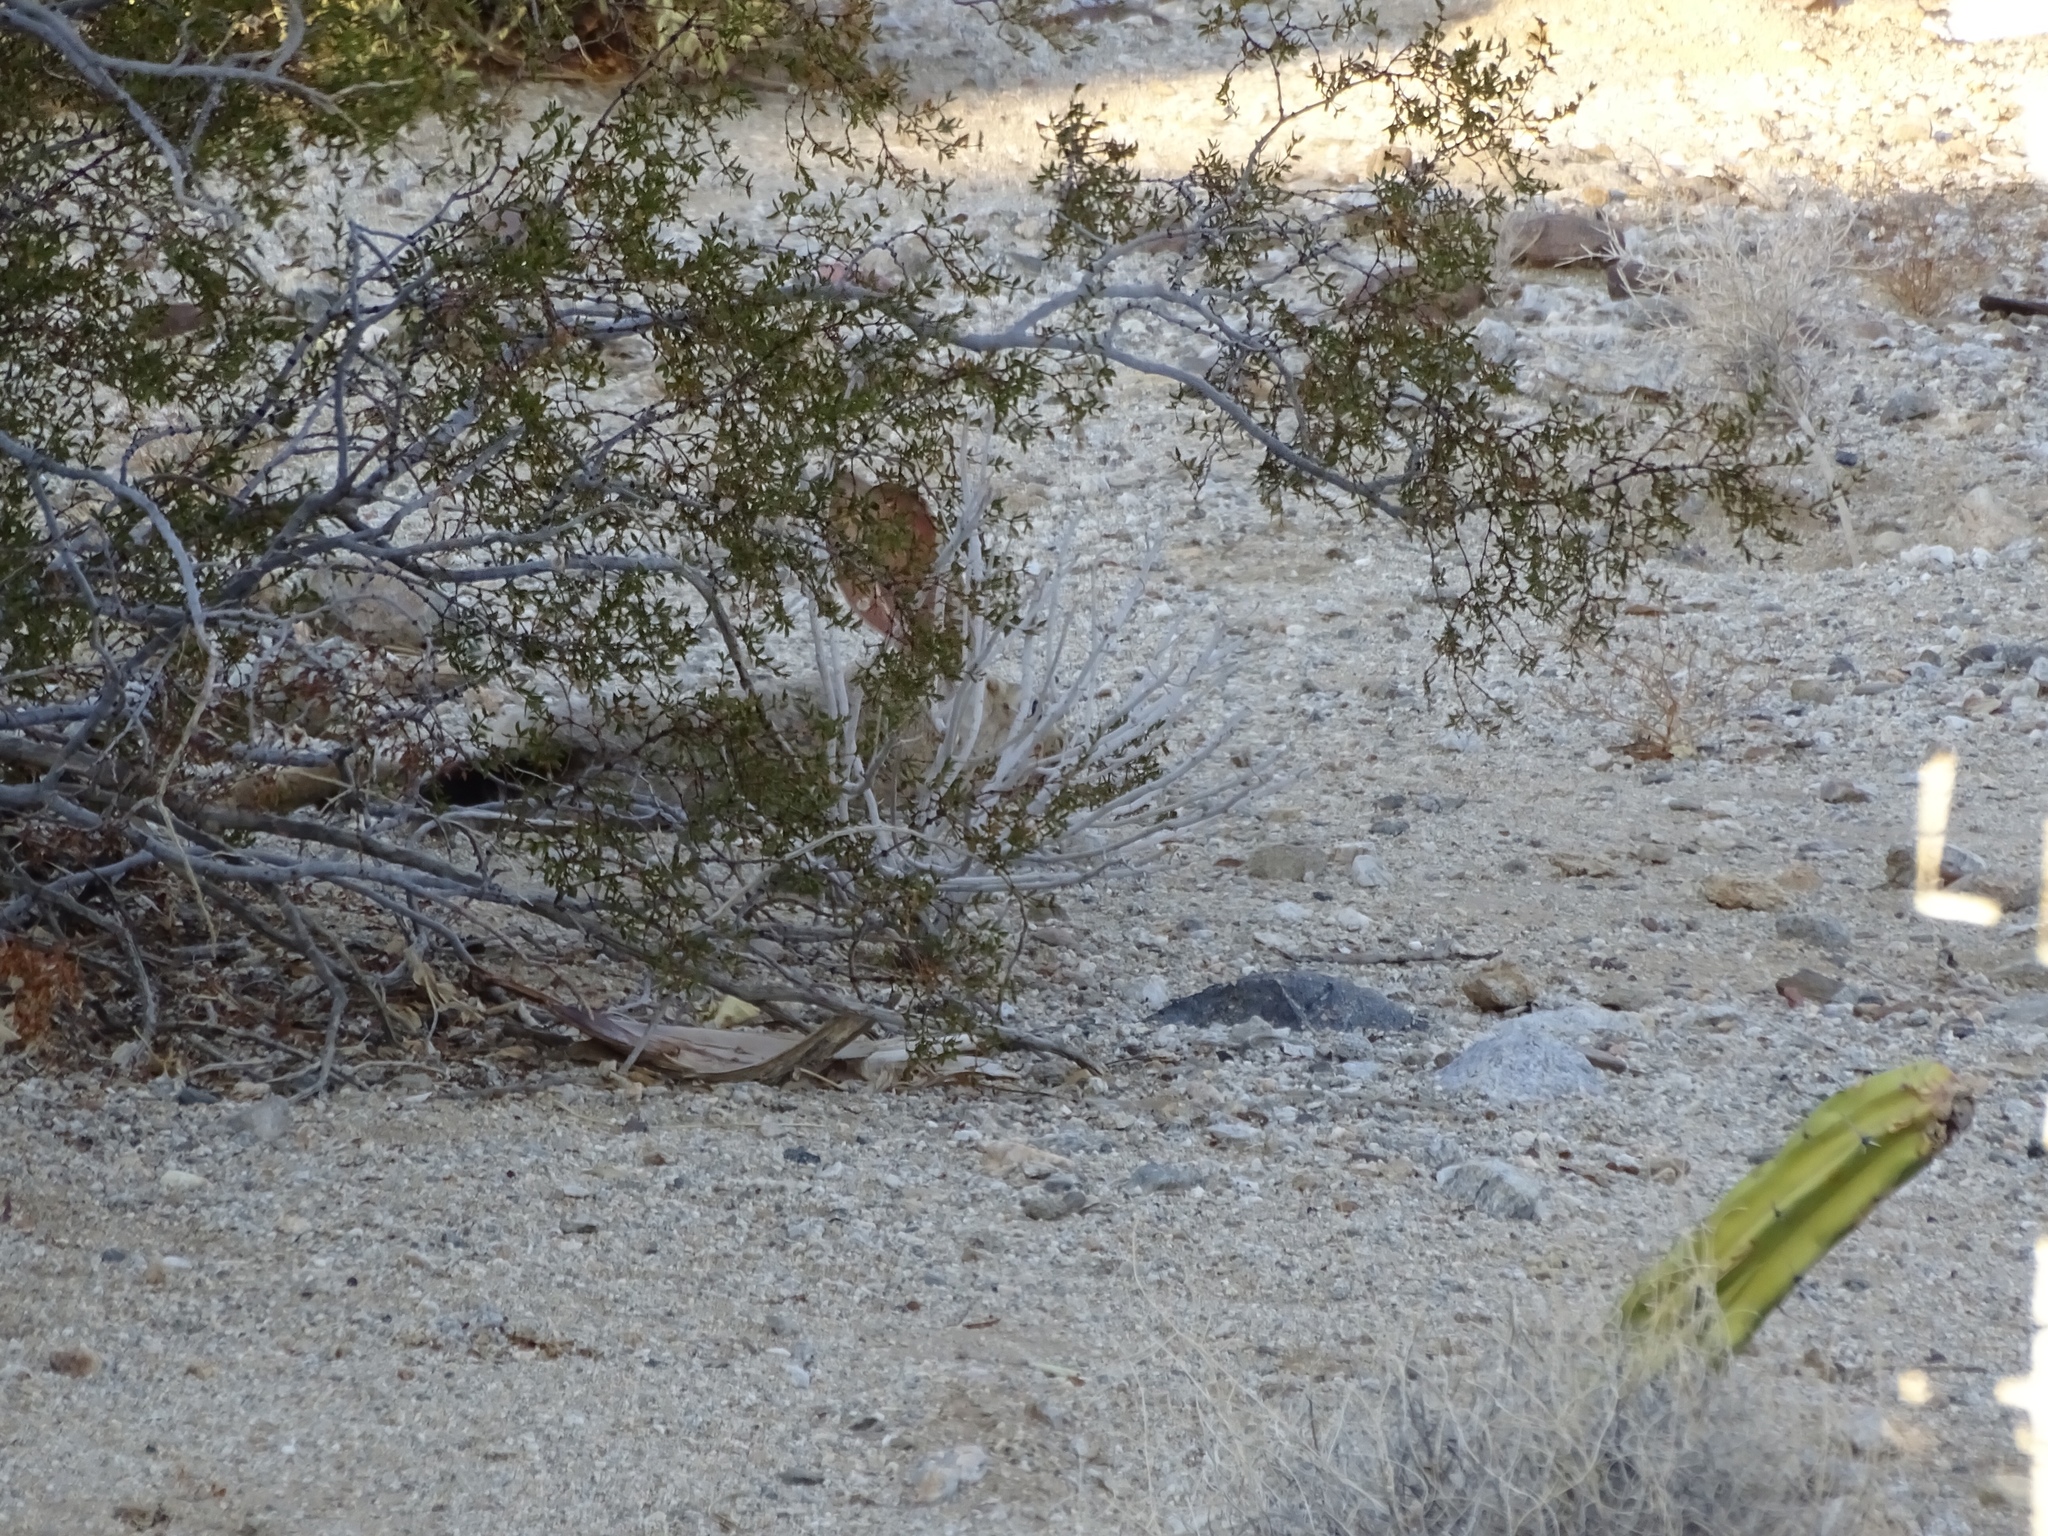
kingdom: Animalia
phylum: Chordata
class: Mammalia
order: Lagomorpha
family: Leporidae
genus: Lepus
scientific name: Lepus californicus
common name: Black-tailed jackrabbit
